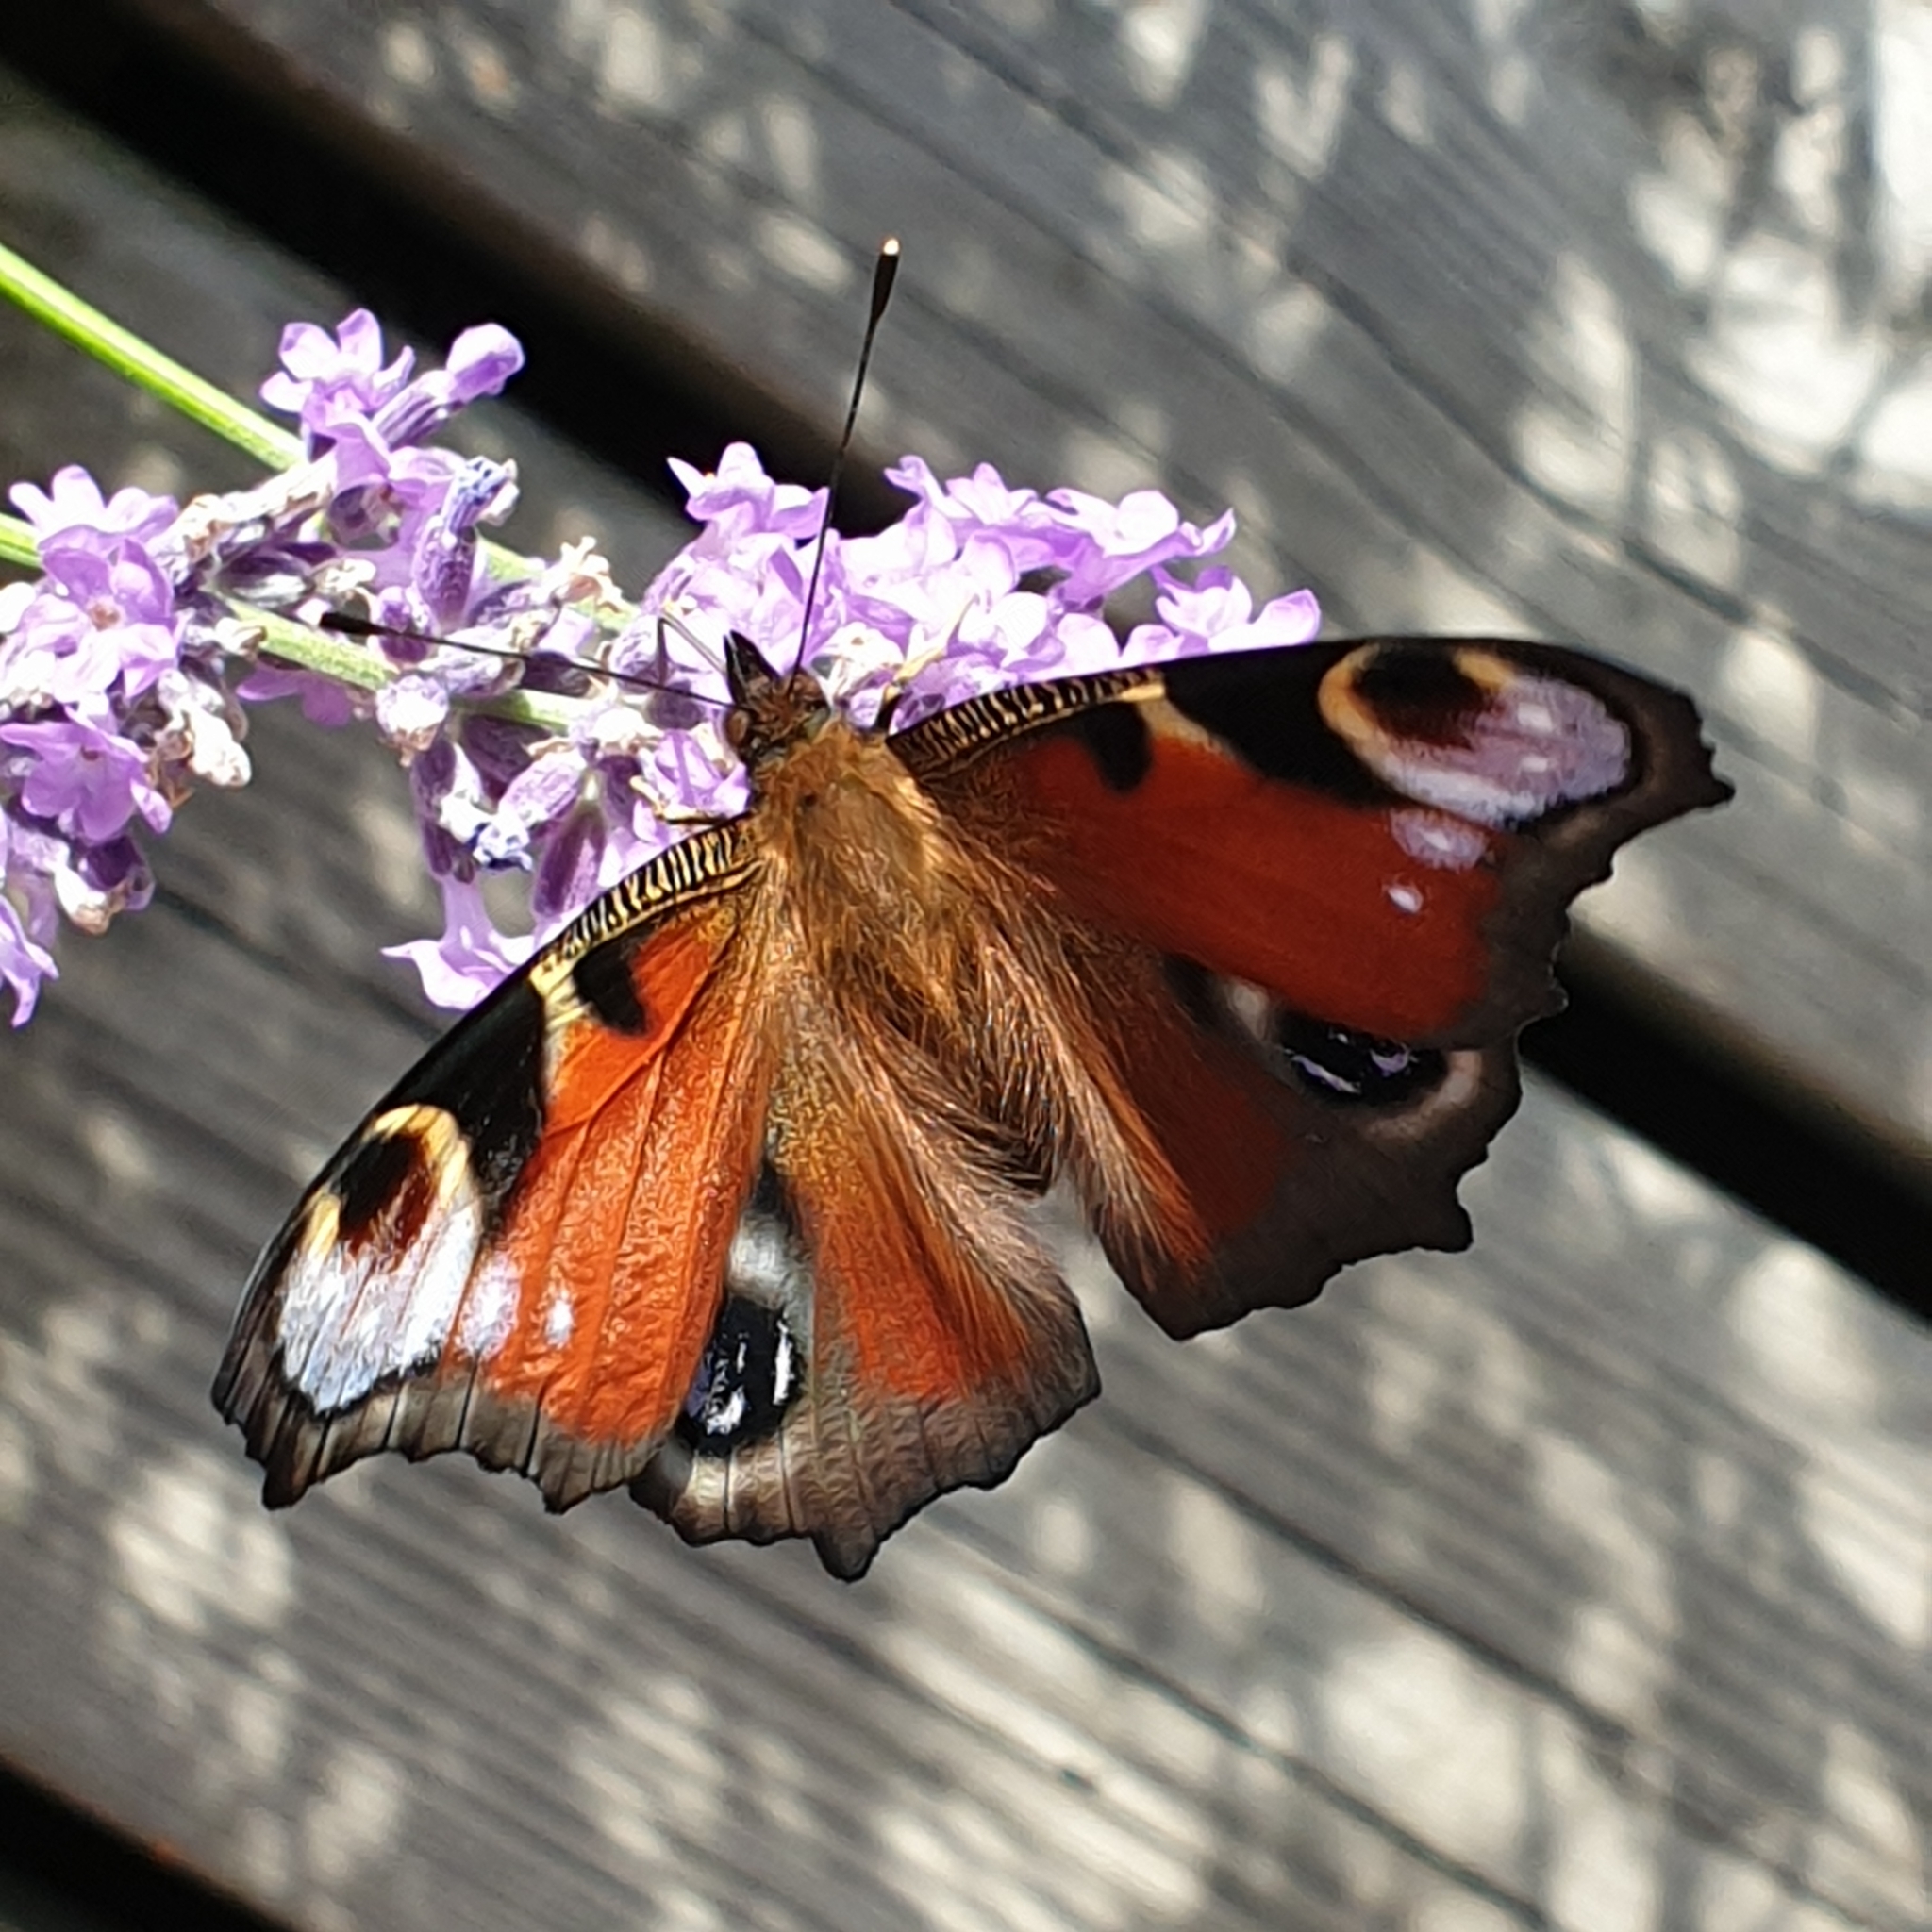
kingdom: Animalia
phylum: Arthropoda
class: Insecta
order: Lepidoptera
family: Nymphalidae
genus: Aglais
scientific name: Aglais io
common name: Peacock
